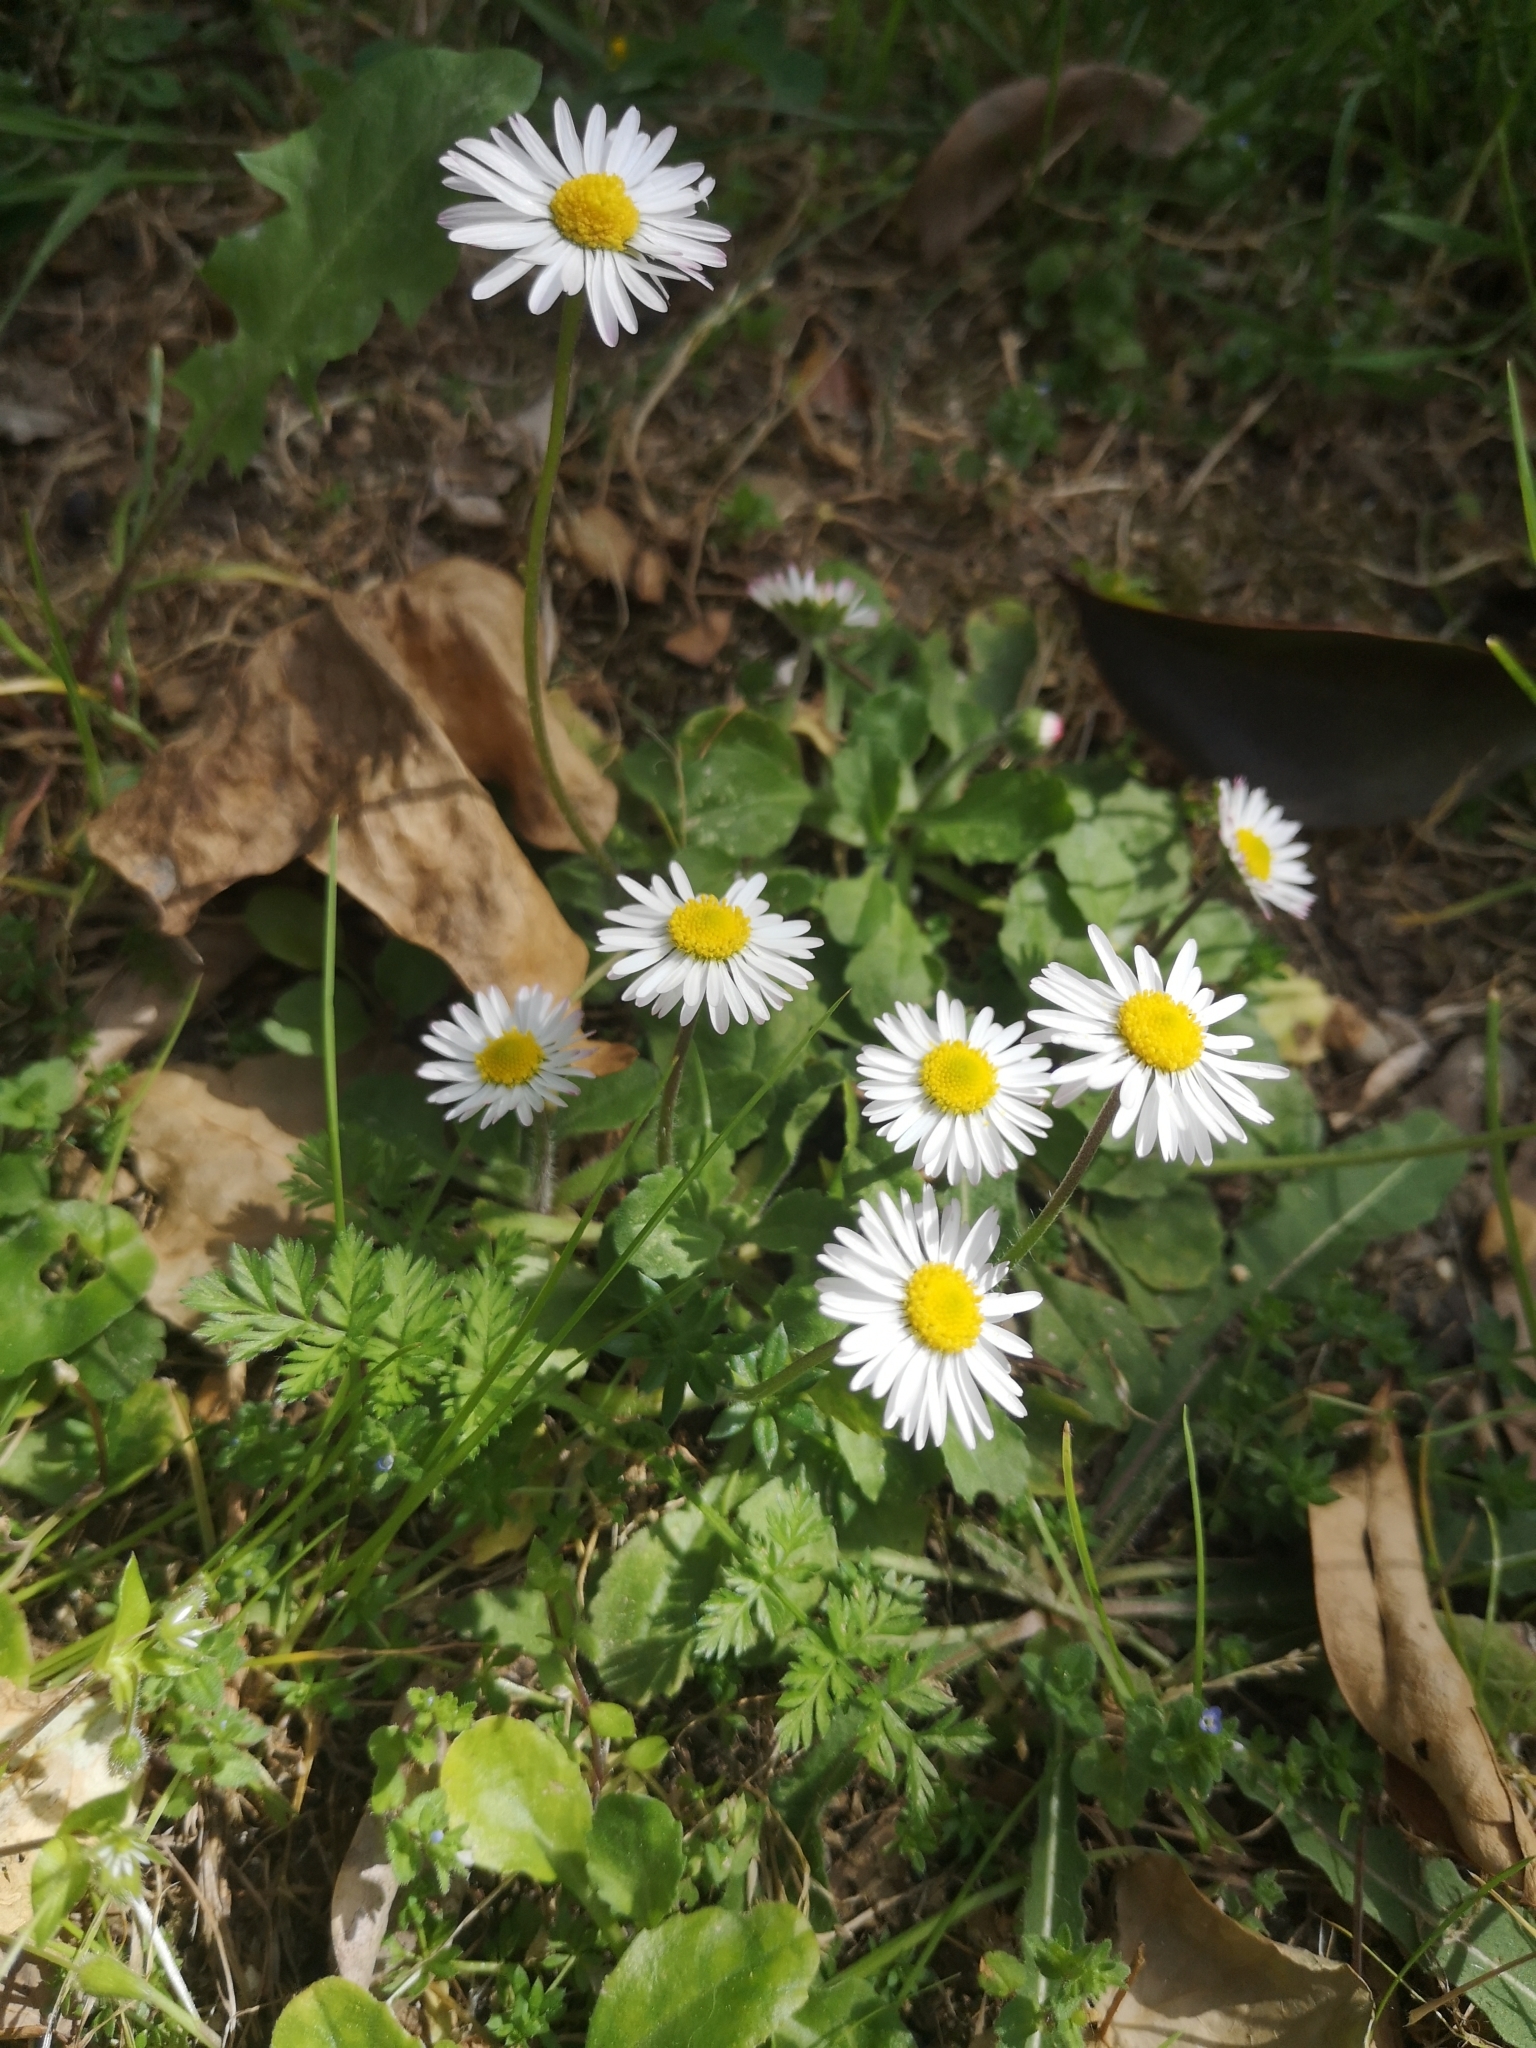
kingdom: Plantae
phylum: Tracheophyta
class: Magnoliopsida
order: Asterales
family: Asteraceae
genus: Bellis
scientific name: Bellis perennis
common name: Lawndaisy
